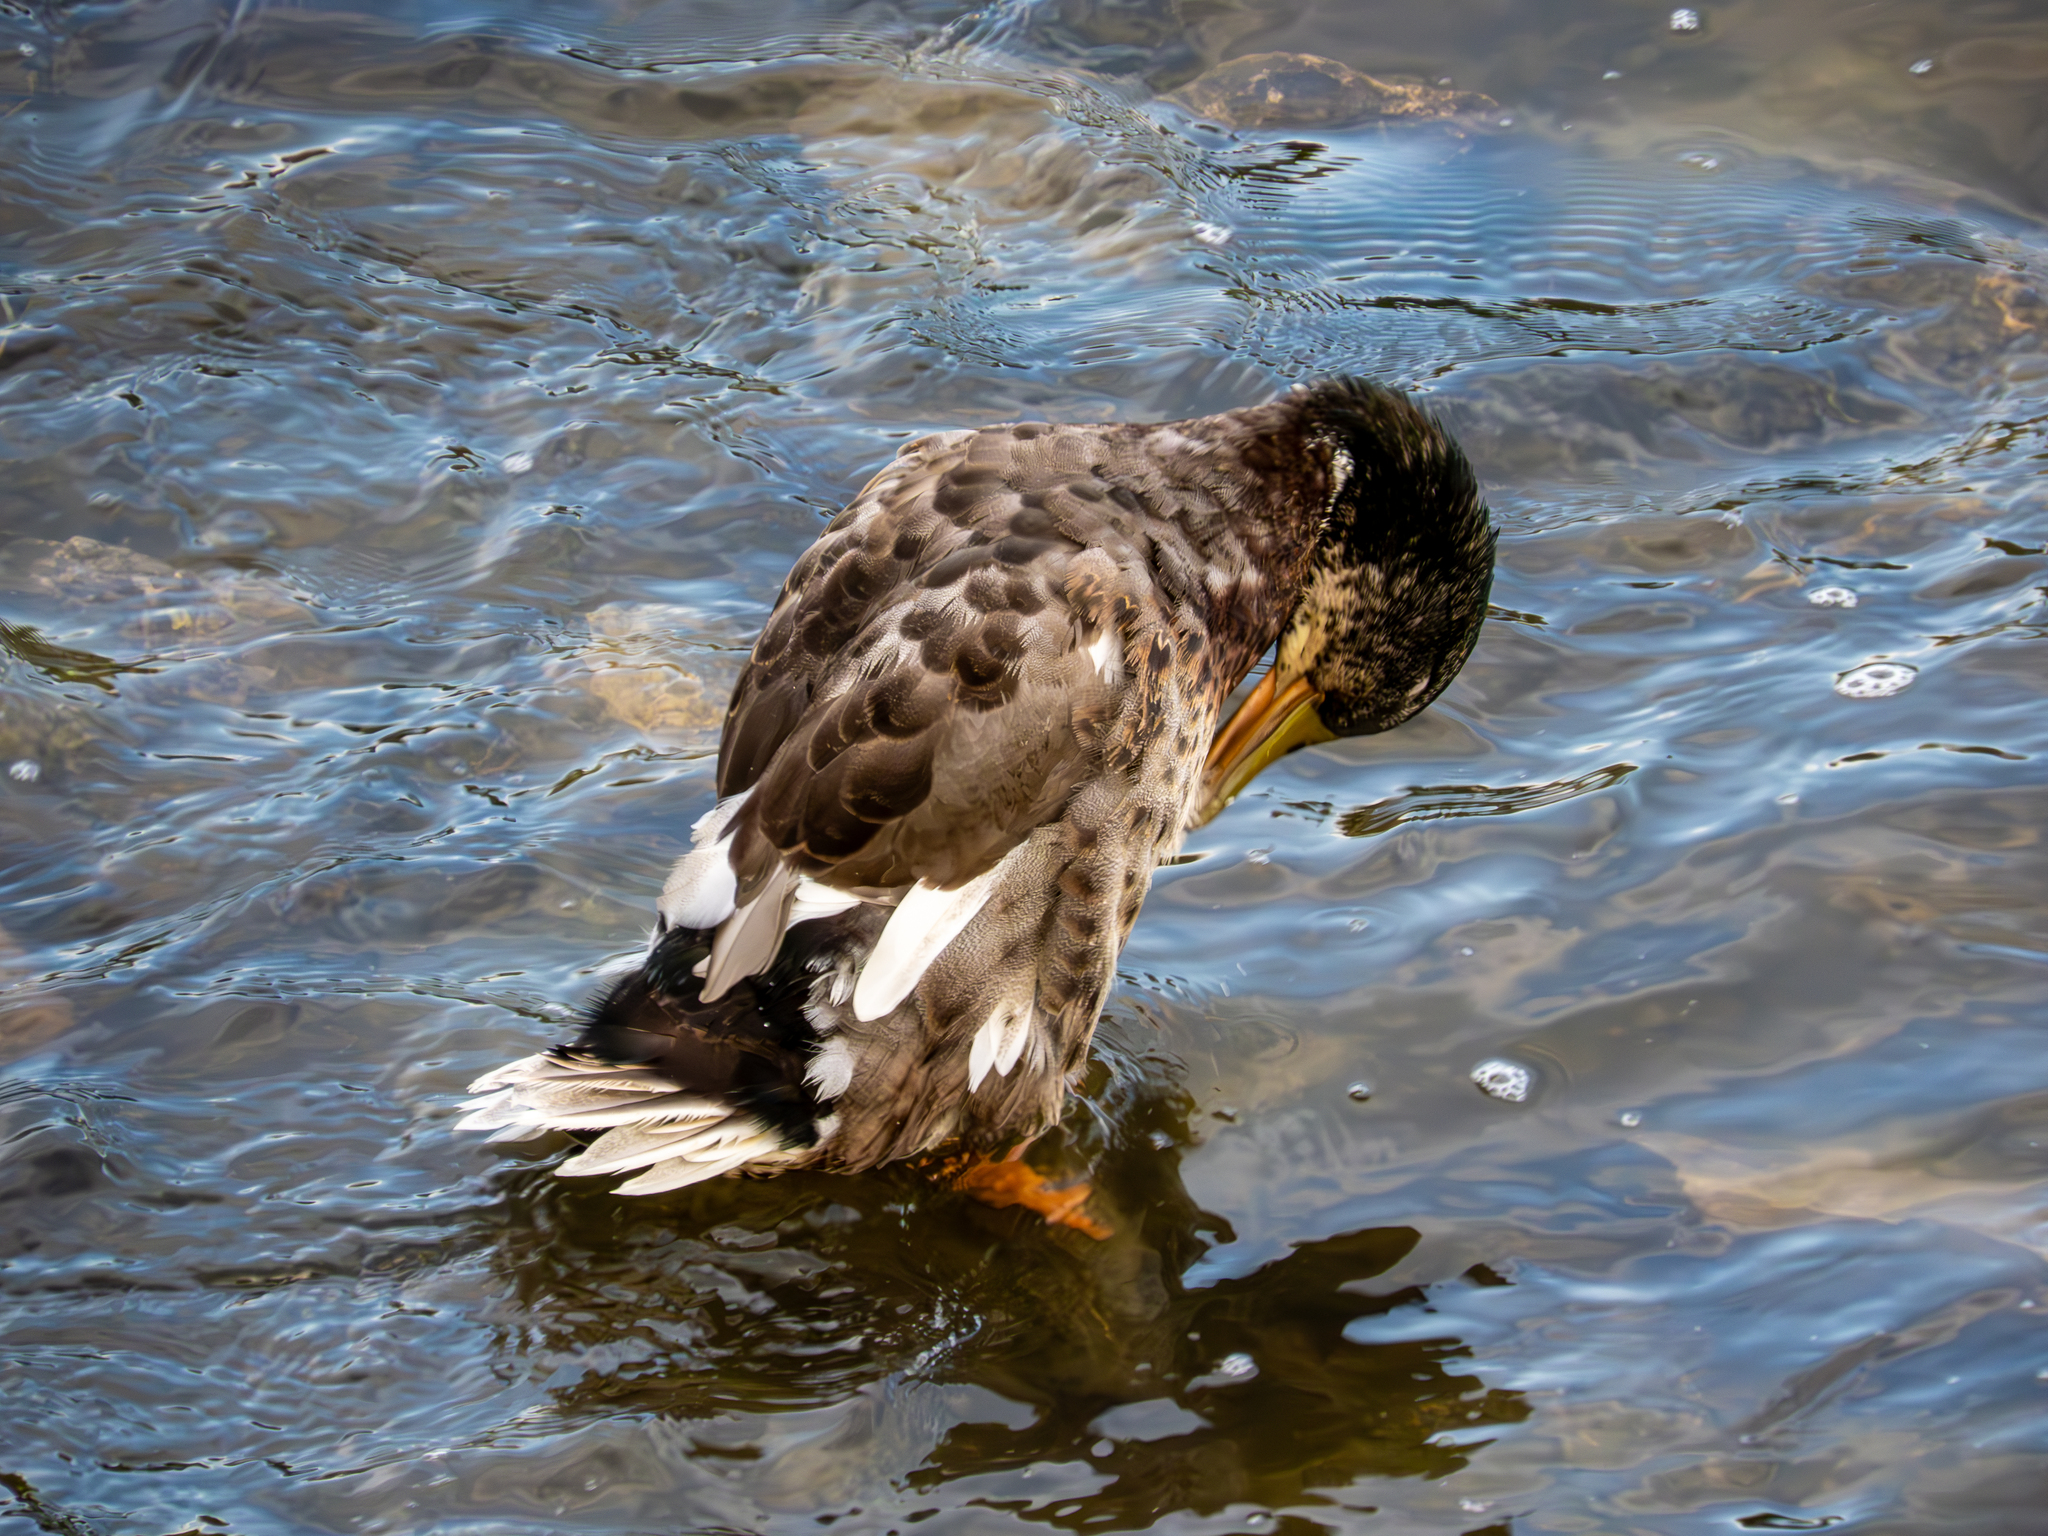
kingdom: Animalia
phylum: Chordata
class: Aves
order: Anseriformes
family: Anatidae
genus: Anas
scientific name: Anas platyrhynchos
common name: Mallard
